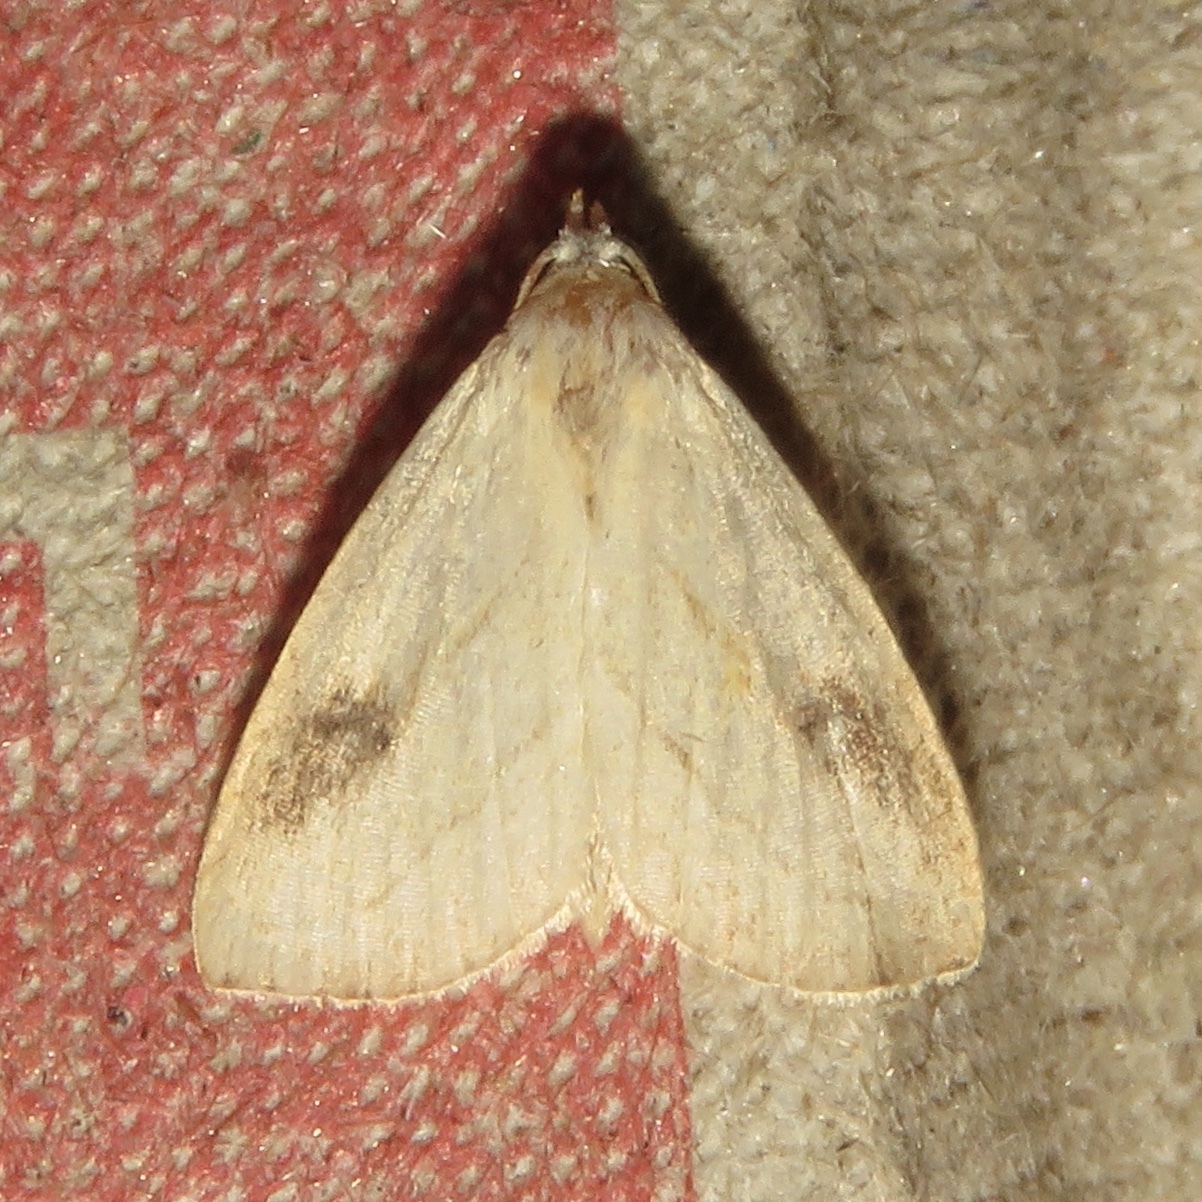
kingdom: Animalia
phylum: Arthropoda
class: Insecta
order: Lepidoptera
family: Erebidae
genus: Rivula
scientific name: Rivula propinqualis
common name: Spotted grass moth
